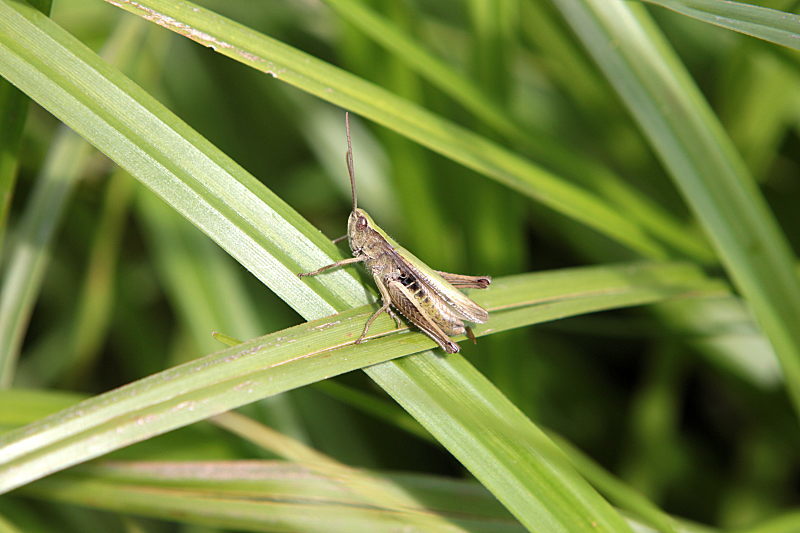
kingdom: Animalia
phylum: Arthropoda
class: Insecta
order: Orthoptera
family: Acrididae
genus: Chorthippus
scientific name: Chorthippus dorsatus
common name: Steppe grasshopper
